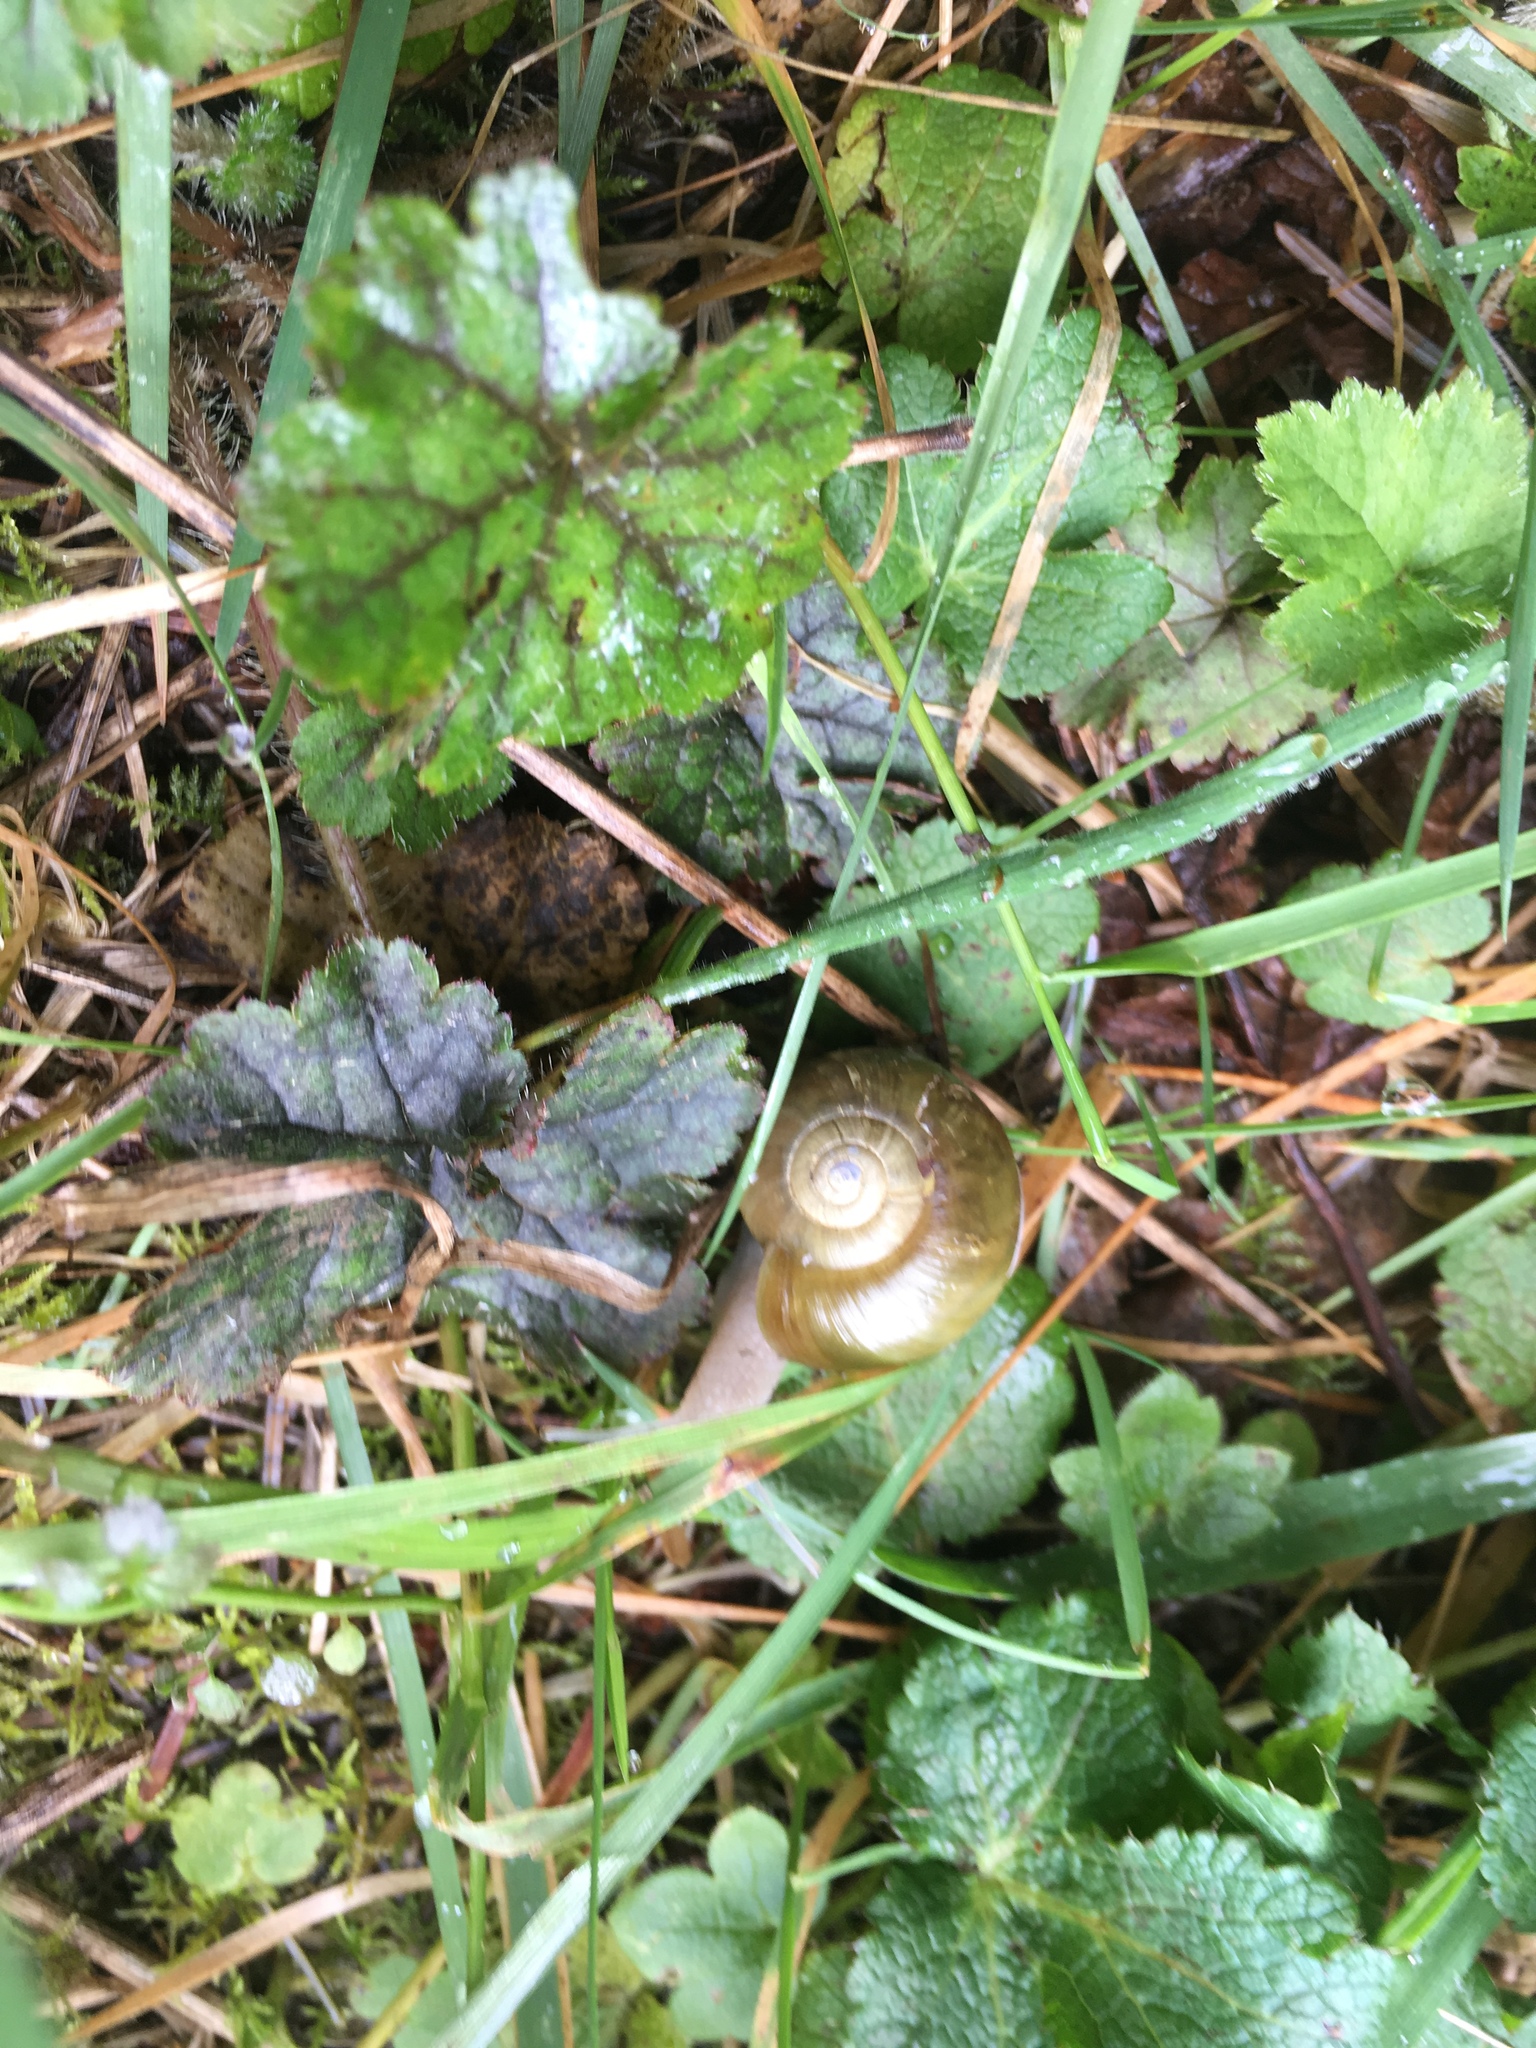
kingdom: Animalia
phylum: Mollusca
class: Gastropoda
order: Stylommatophora
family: Haplotrematidae
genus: Haplotrema
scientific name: Haplotrema vancouverense
